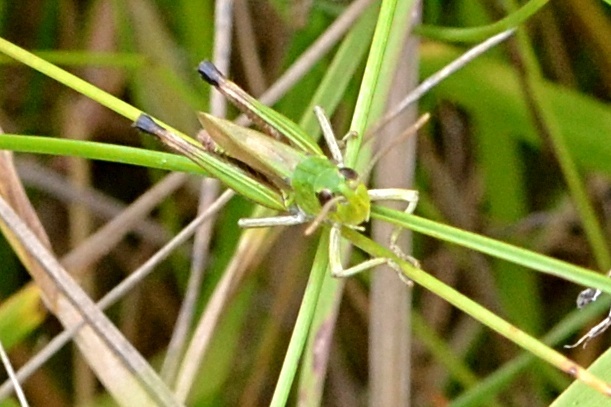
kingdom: Animalia
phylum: Arthropoda
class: Insecta
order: Orthoptera
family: Acrididae
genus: Pseudochorthippus
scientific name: Pseudochorthippus parallelus
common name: Meadow grasshopper
